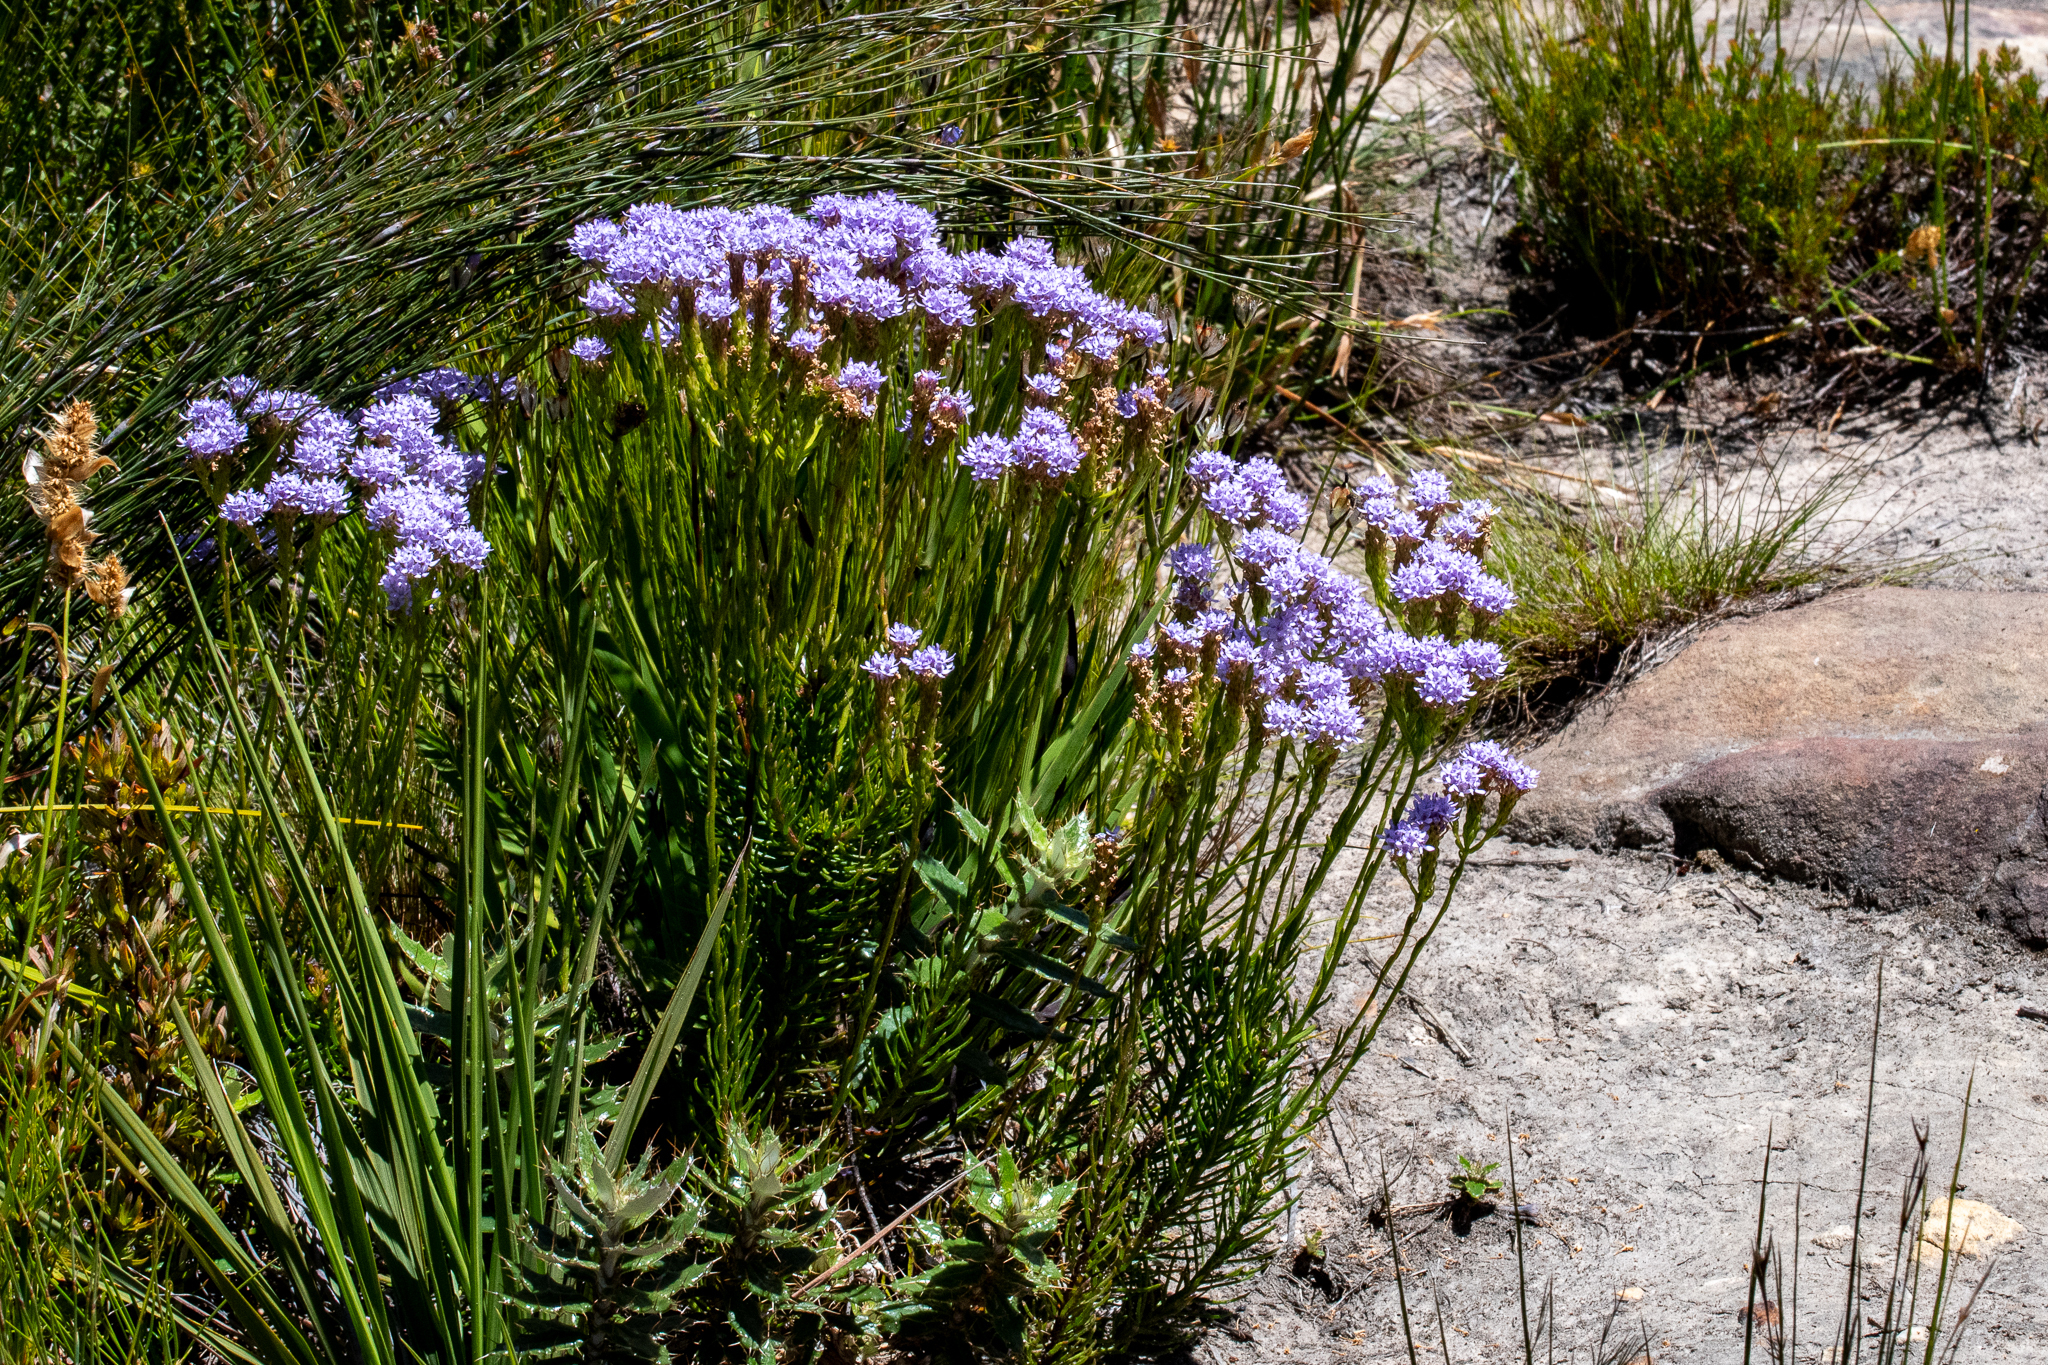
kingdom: Plantae
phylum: Tracheophyta
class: Magnoliopsida
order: Lamiales
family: Scrophulariaceae
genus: Pseudoselago
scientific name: Pseudoselago spuria
